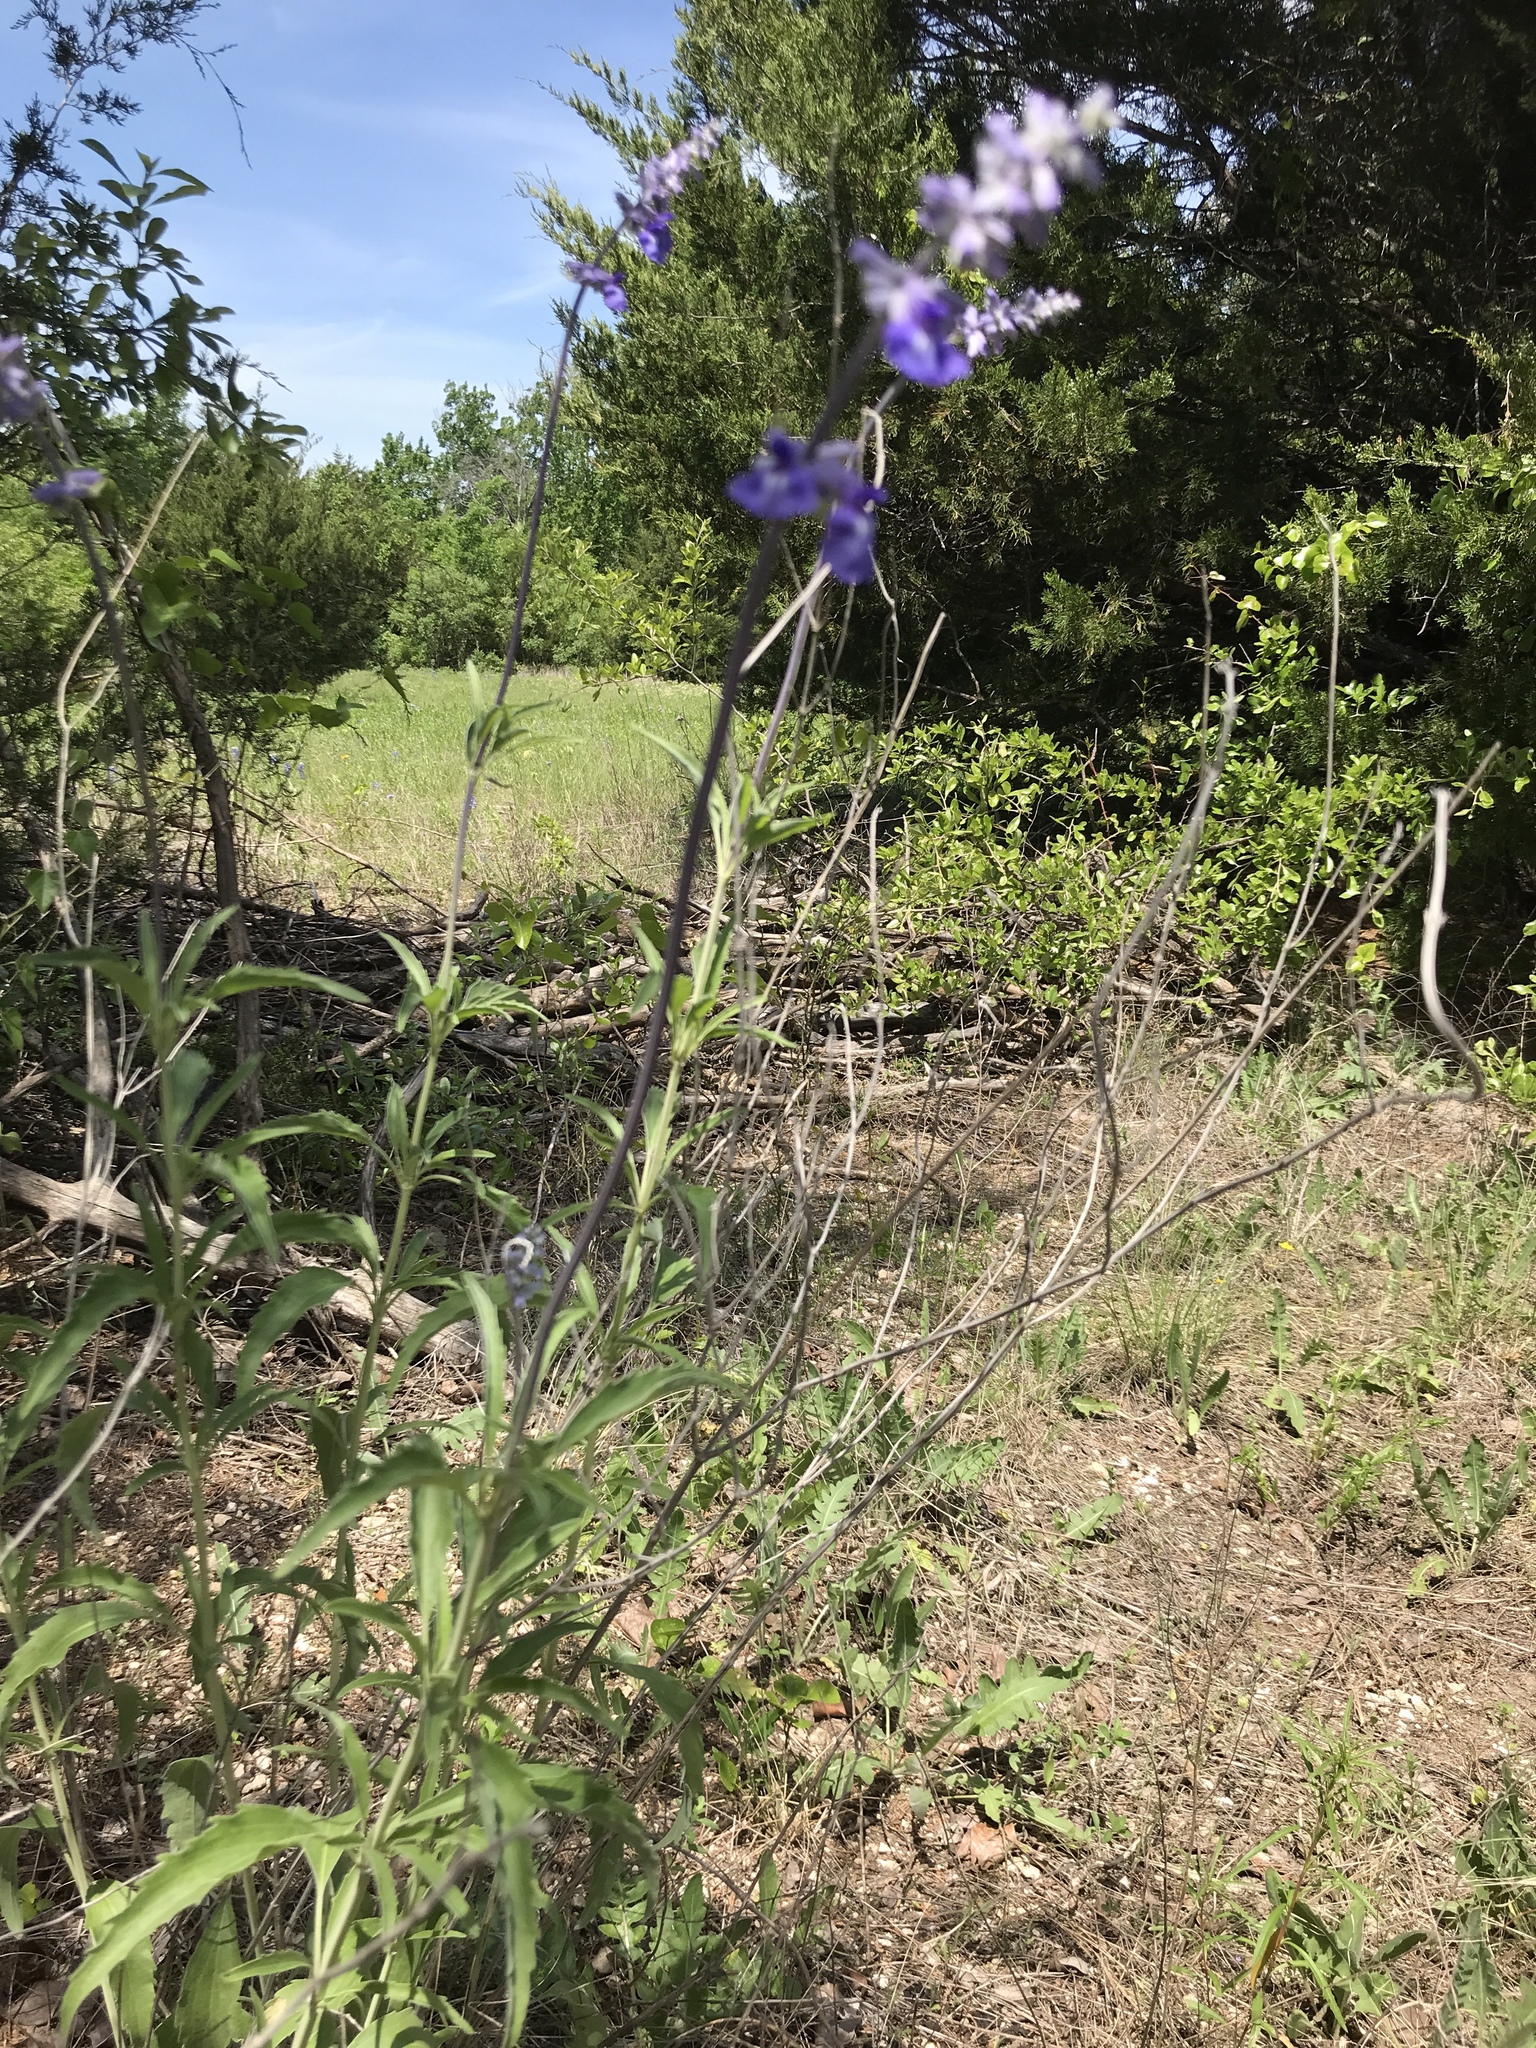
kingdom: Plantae
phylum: Tracheophyta
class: Magnoliopsida
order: Lamiales
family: Lamiaceae
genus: Salvia
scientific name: Salvia farinacea
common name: Mealy sage
